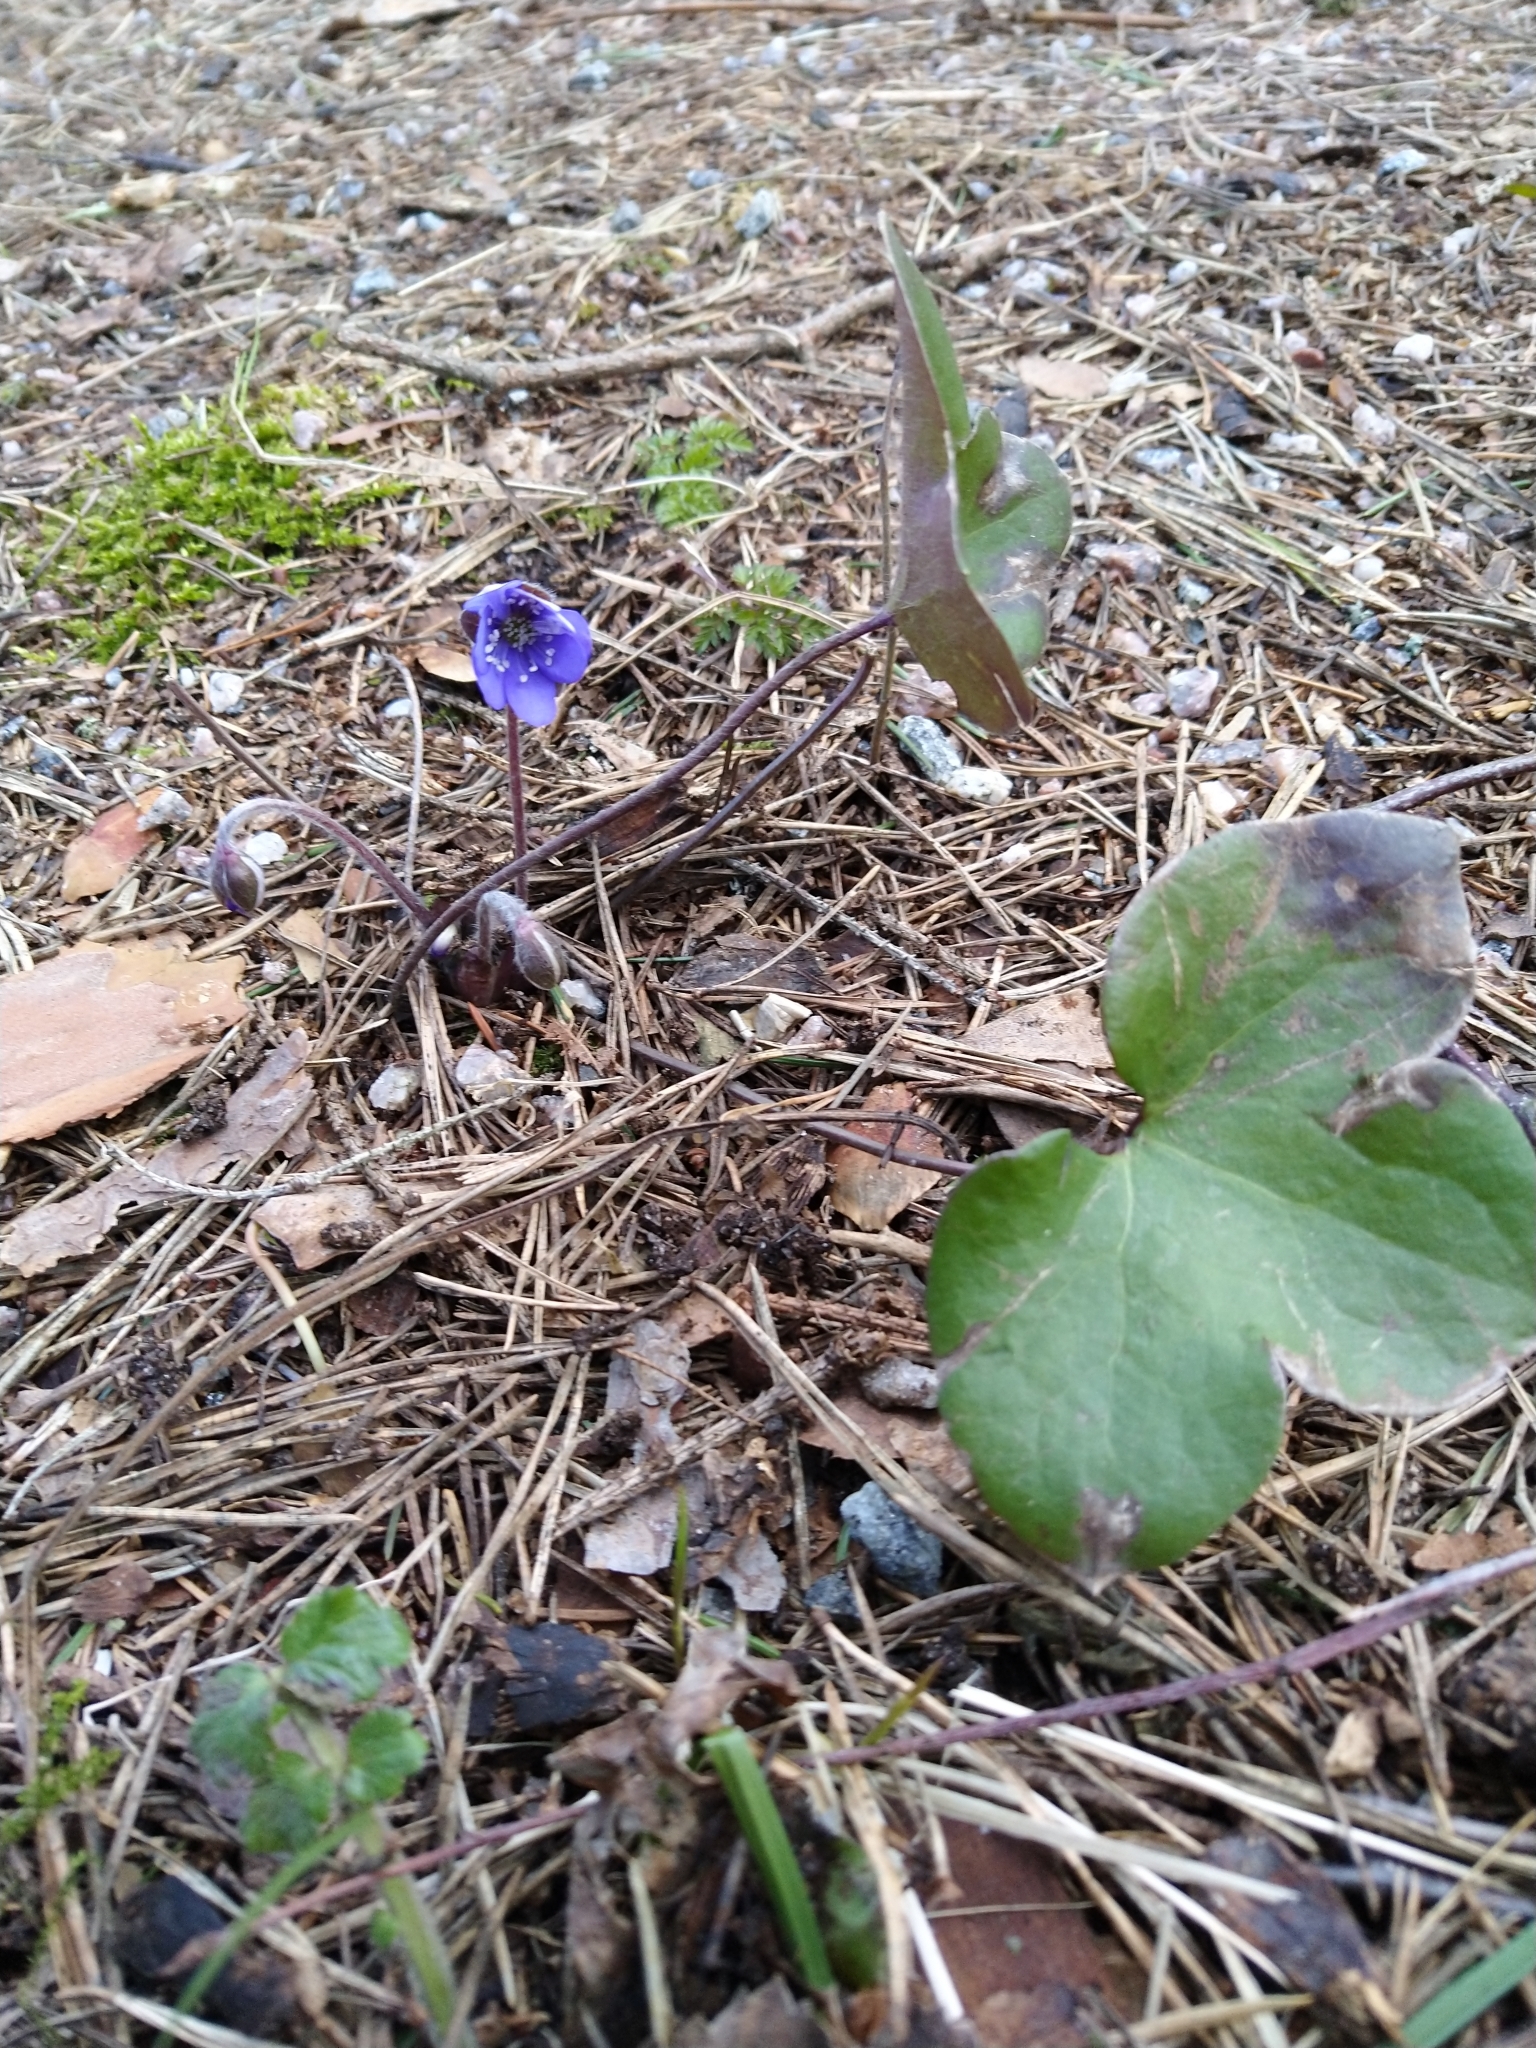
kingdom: Plantae
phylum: Tracheophyta
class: Magnoliopsida
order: Ranunculales
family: Ranunculaceae
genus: Hepatica
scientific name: Hepatica nobilis
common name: Liverleaf
